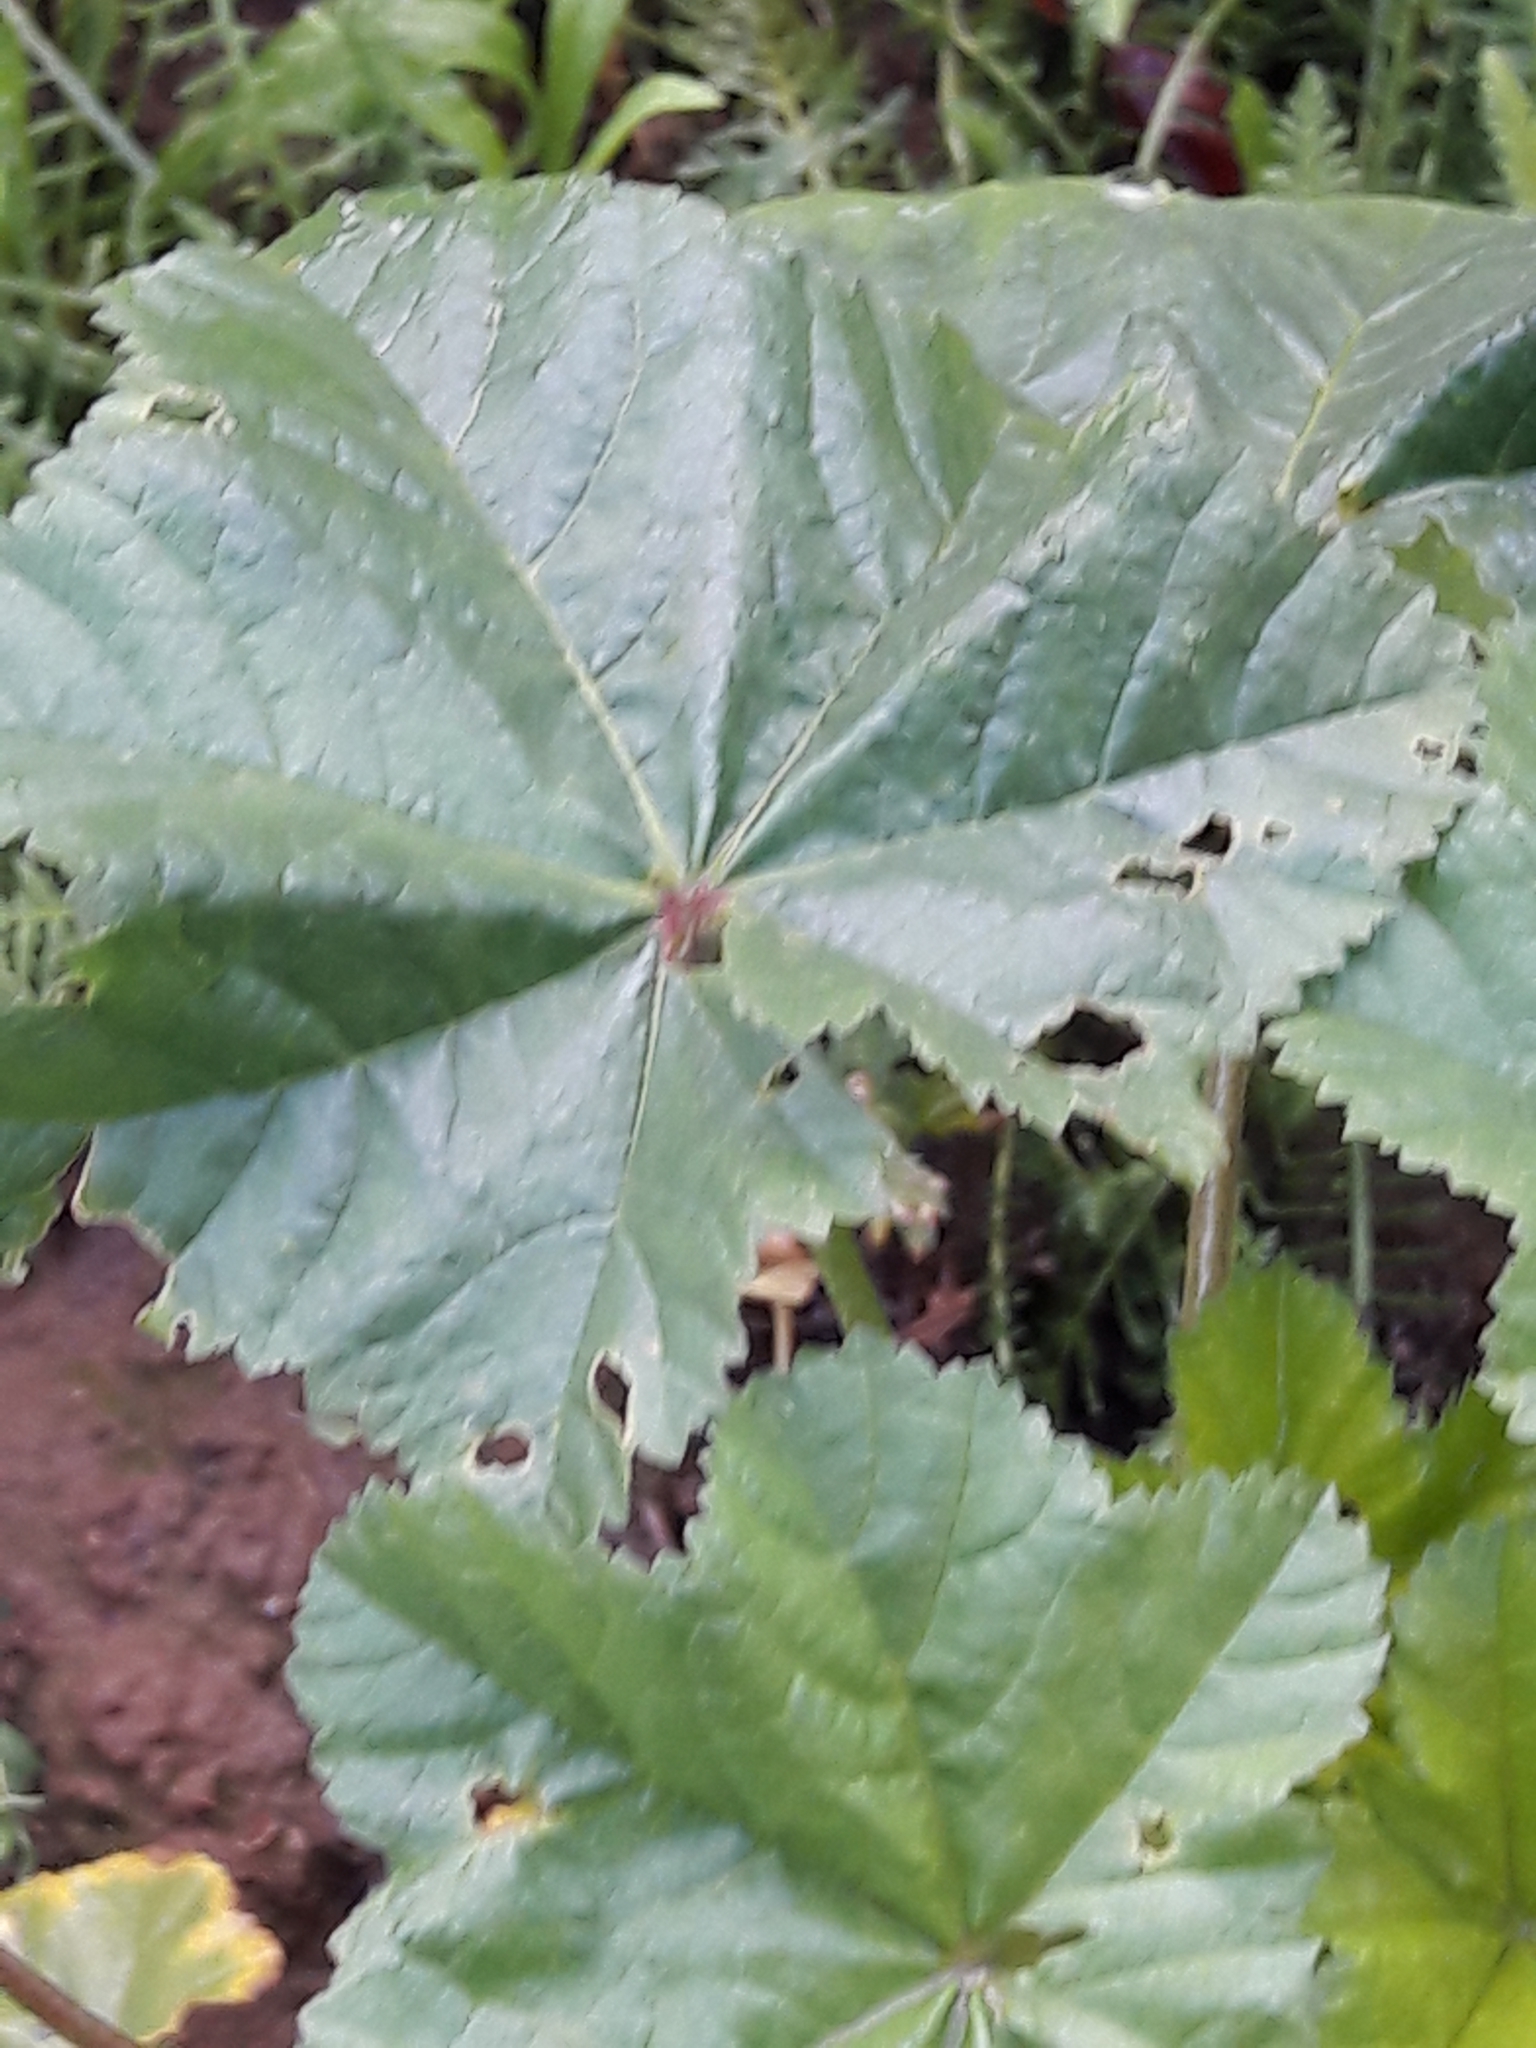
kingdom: Plantae
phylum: Tracheophyta
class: Magnoliopsida
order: Malvales
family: Malvaceae
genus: Malva
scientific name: Malva sylvestris
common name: Common mallow
